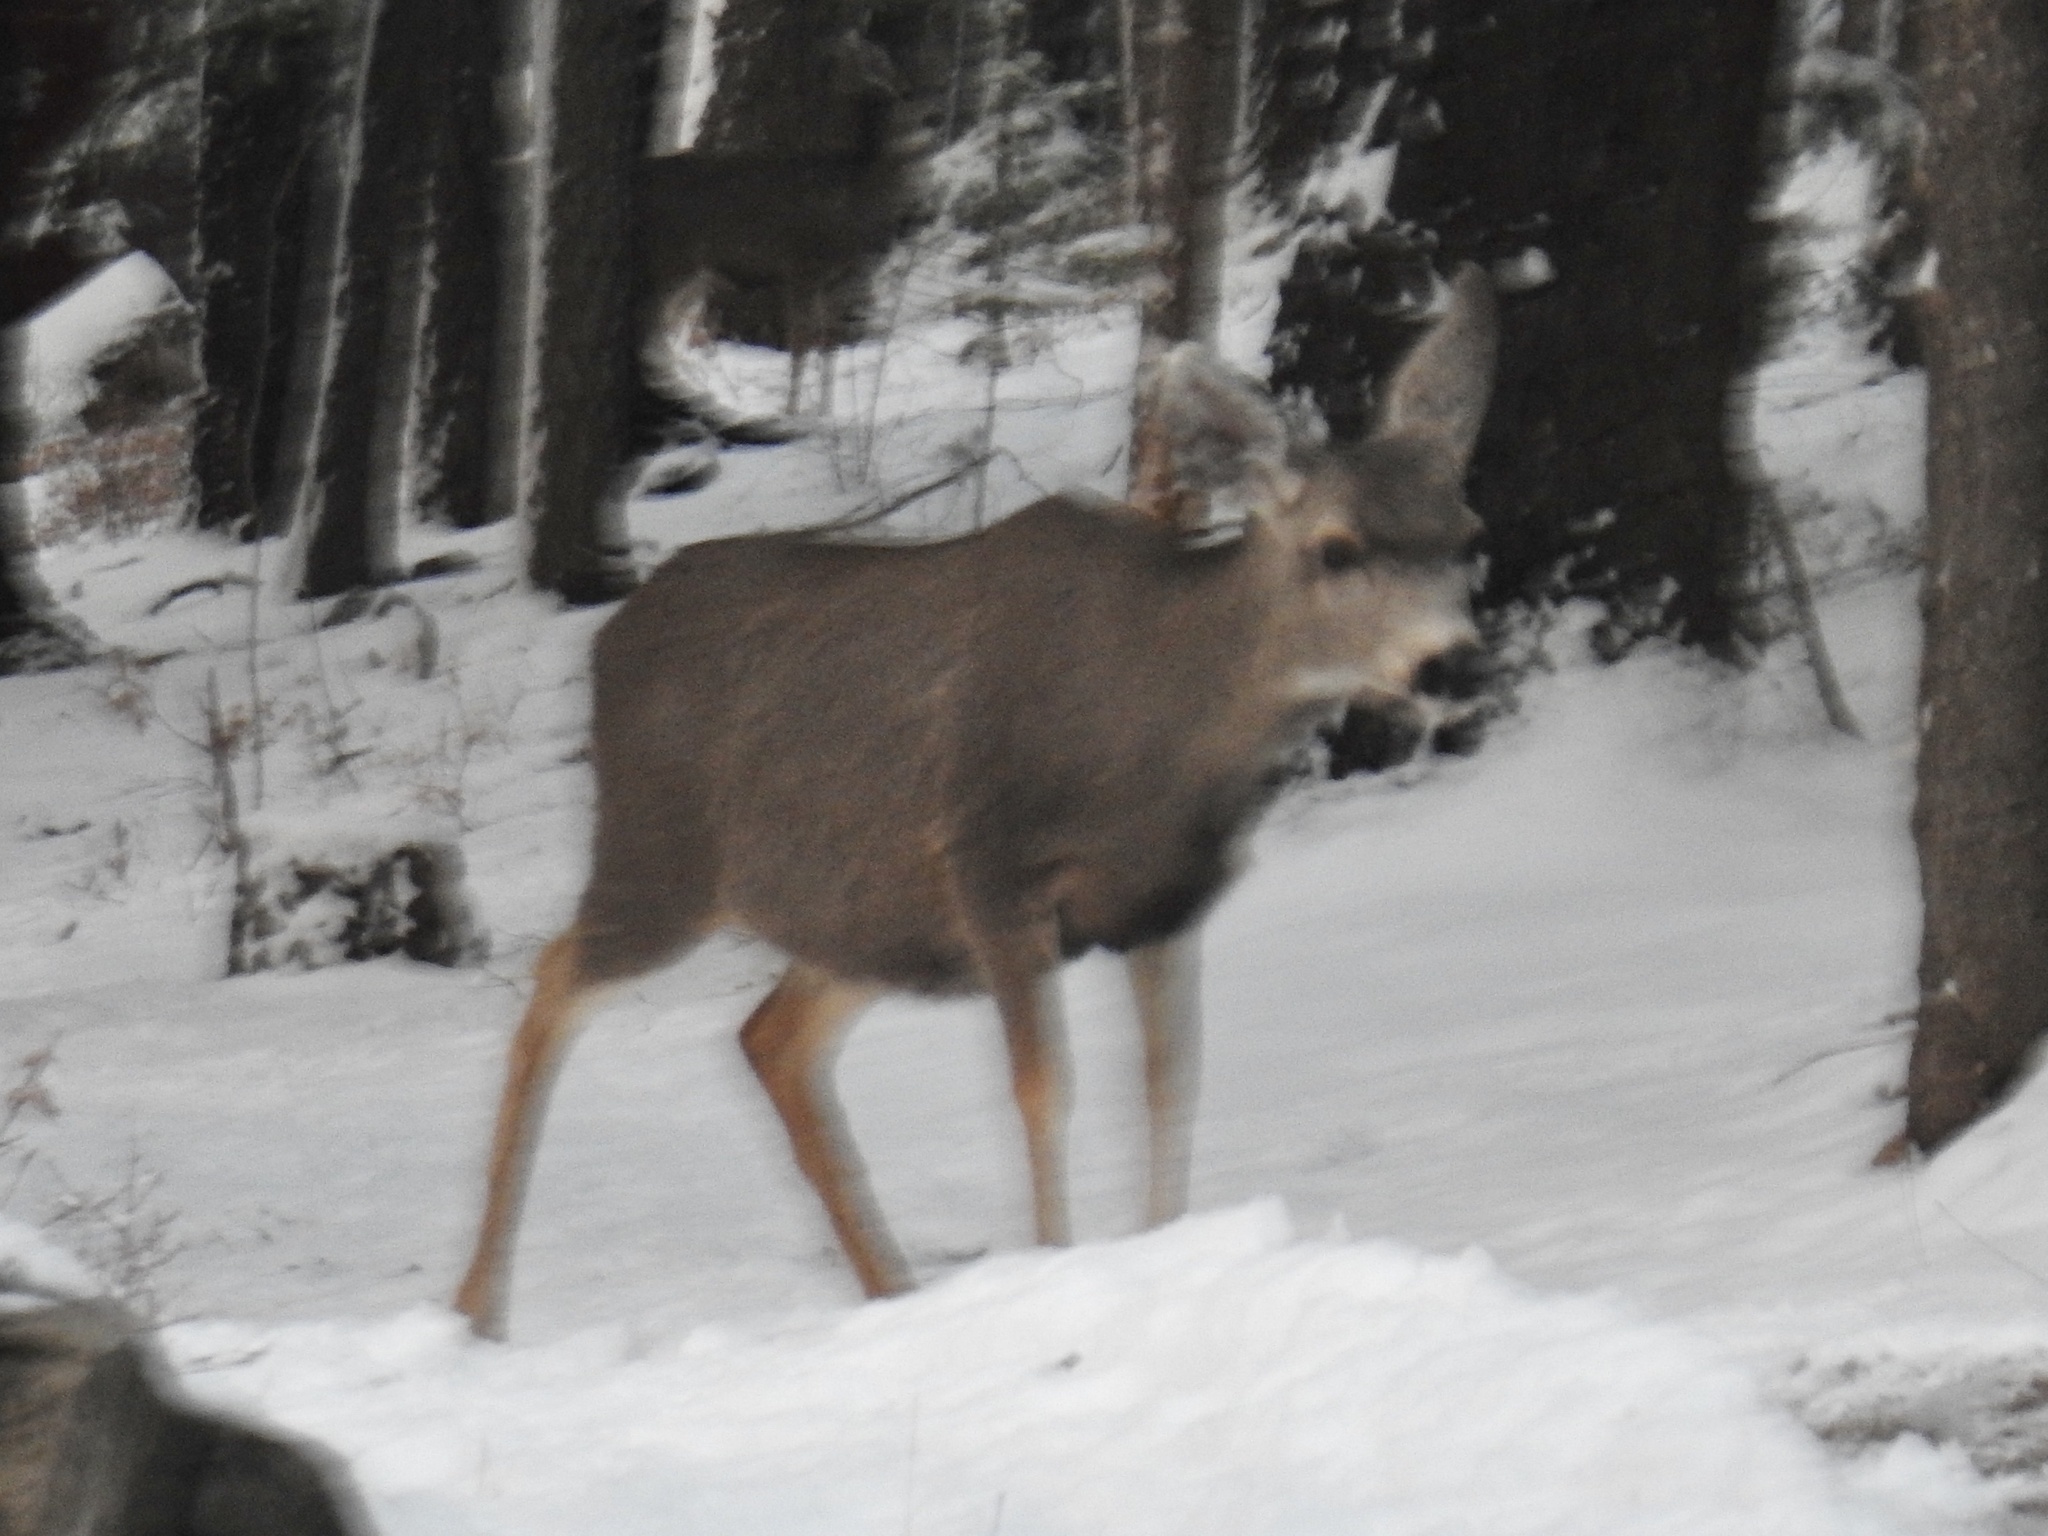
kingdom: Animalia
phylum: Chordata
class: Mammalia
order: Artiodactyla
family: Cervidae
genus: Odocoileus
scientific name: Odocoileus hemionus
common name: Mule deer
